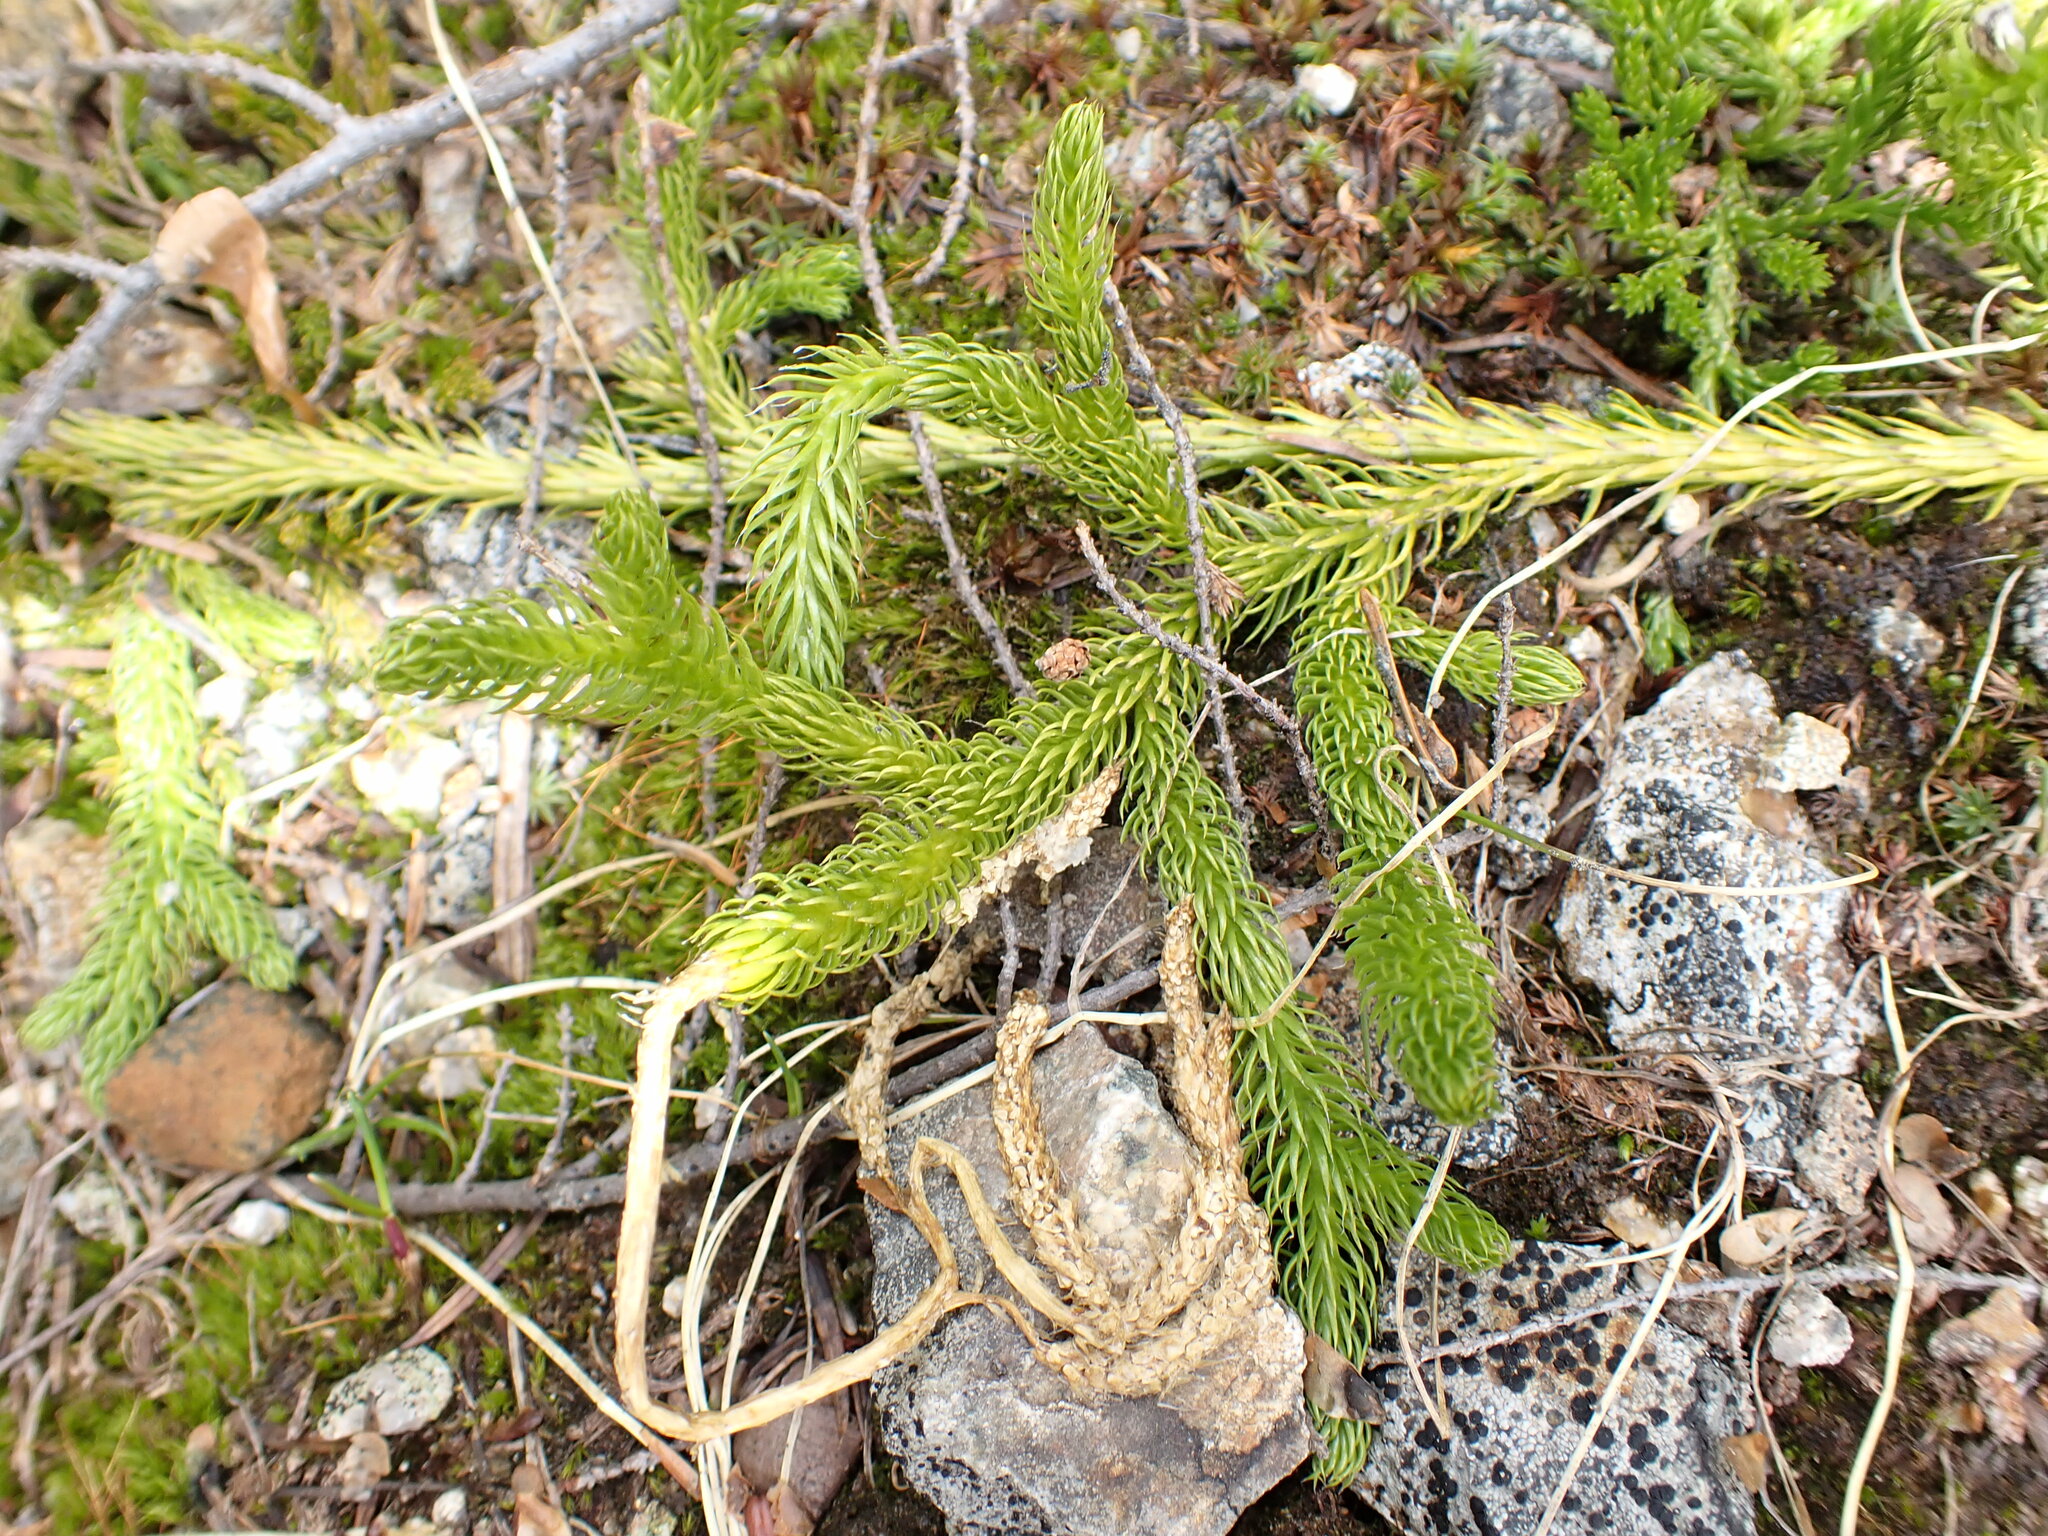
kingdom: Plantae
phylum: Tracheophyta
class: Lycopodiopsida
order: Lycopodiales
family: Lycopodiaceae
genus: Lycopodium
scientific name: Lycopodium clavatum
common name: Stag's-horn clubmoss
